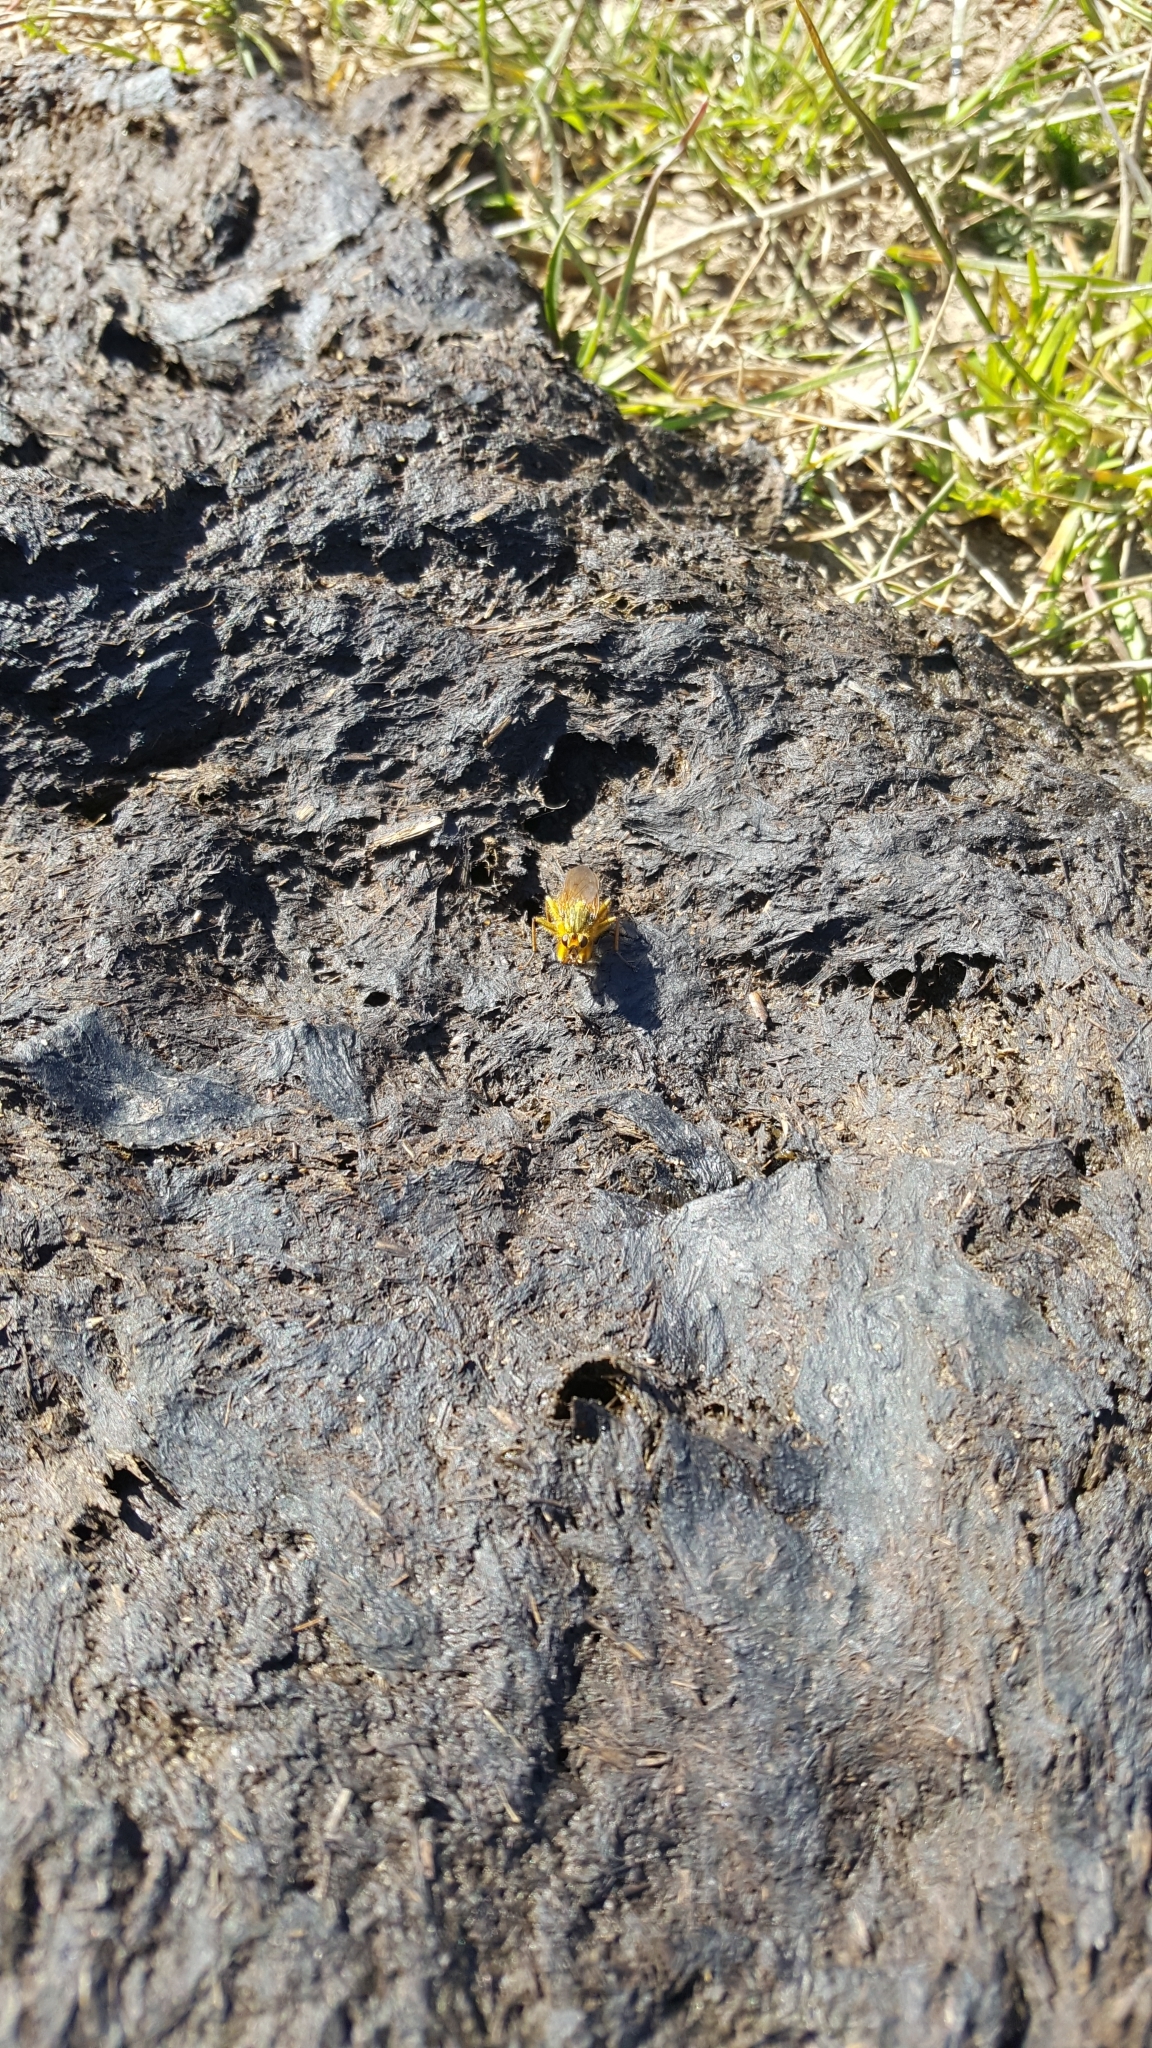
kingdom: Animalia
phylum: Arthropoda
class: Insecta
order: Diptera
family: Scathophagidae
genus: Scathophaga
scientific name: Scathophaga stercoraria
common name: Yellow dung fly
